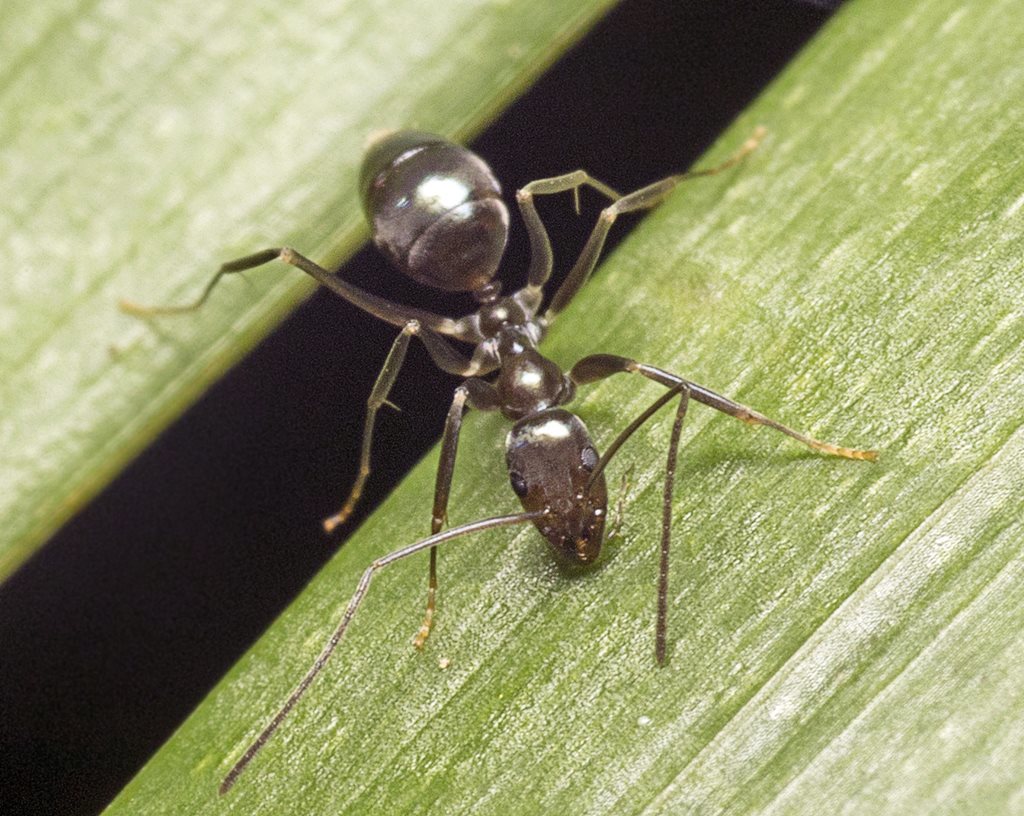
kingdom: Animalia
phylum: Arthropoda
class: Insecta
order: Hymenoptera
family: Formicidae
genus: Leptomyrmex
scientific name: Leptomyrmex burwelli
